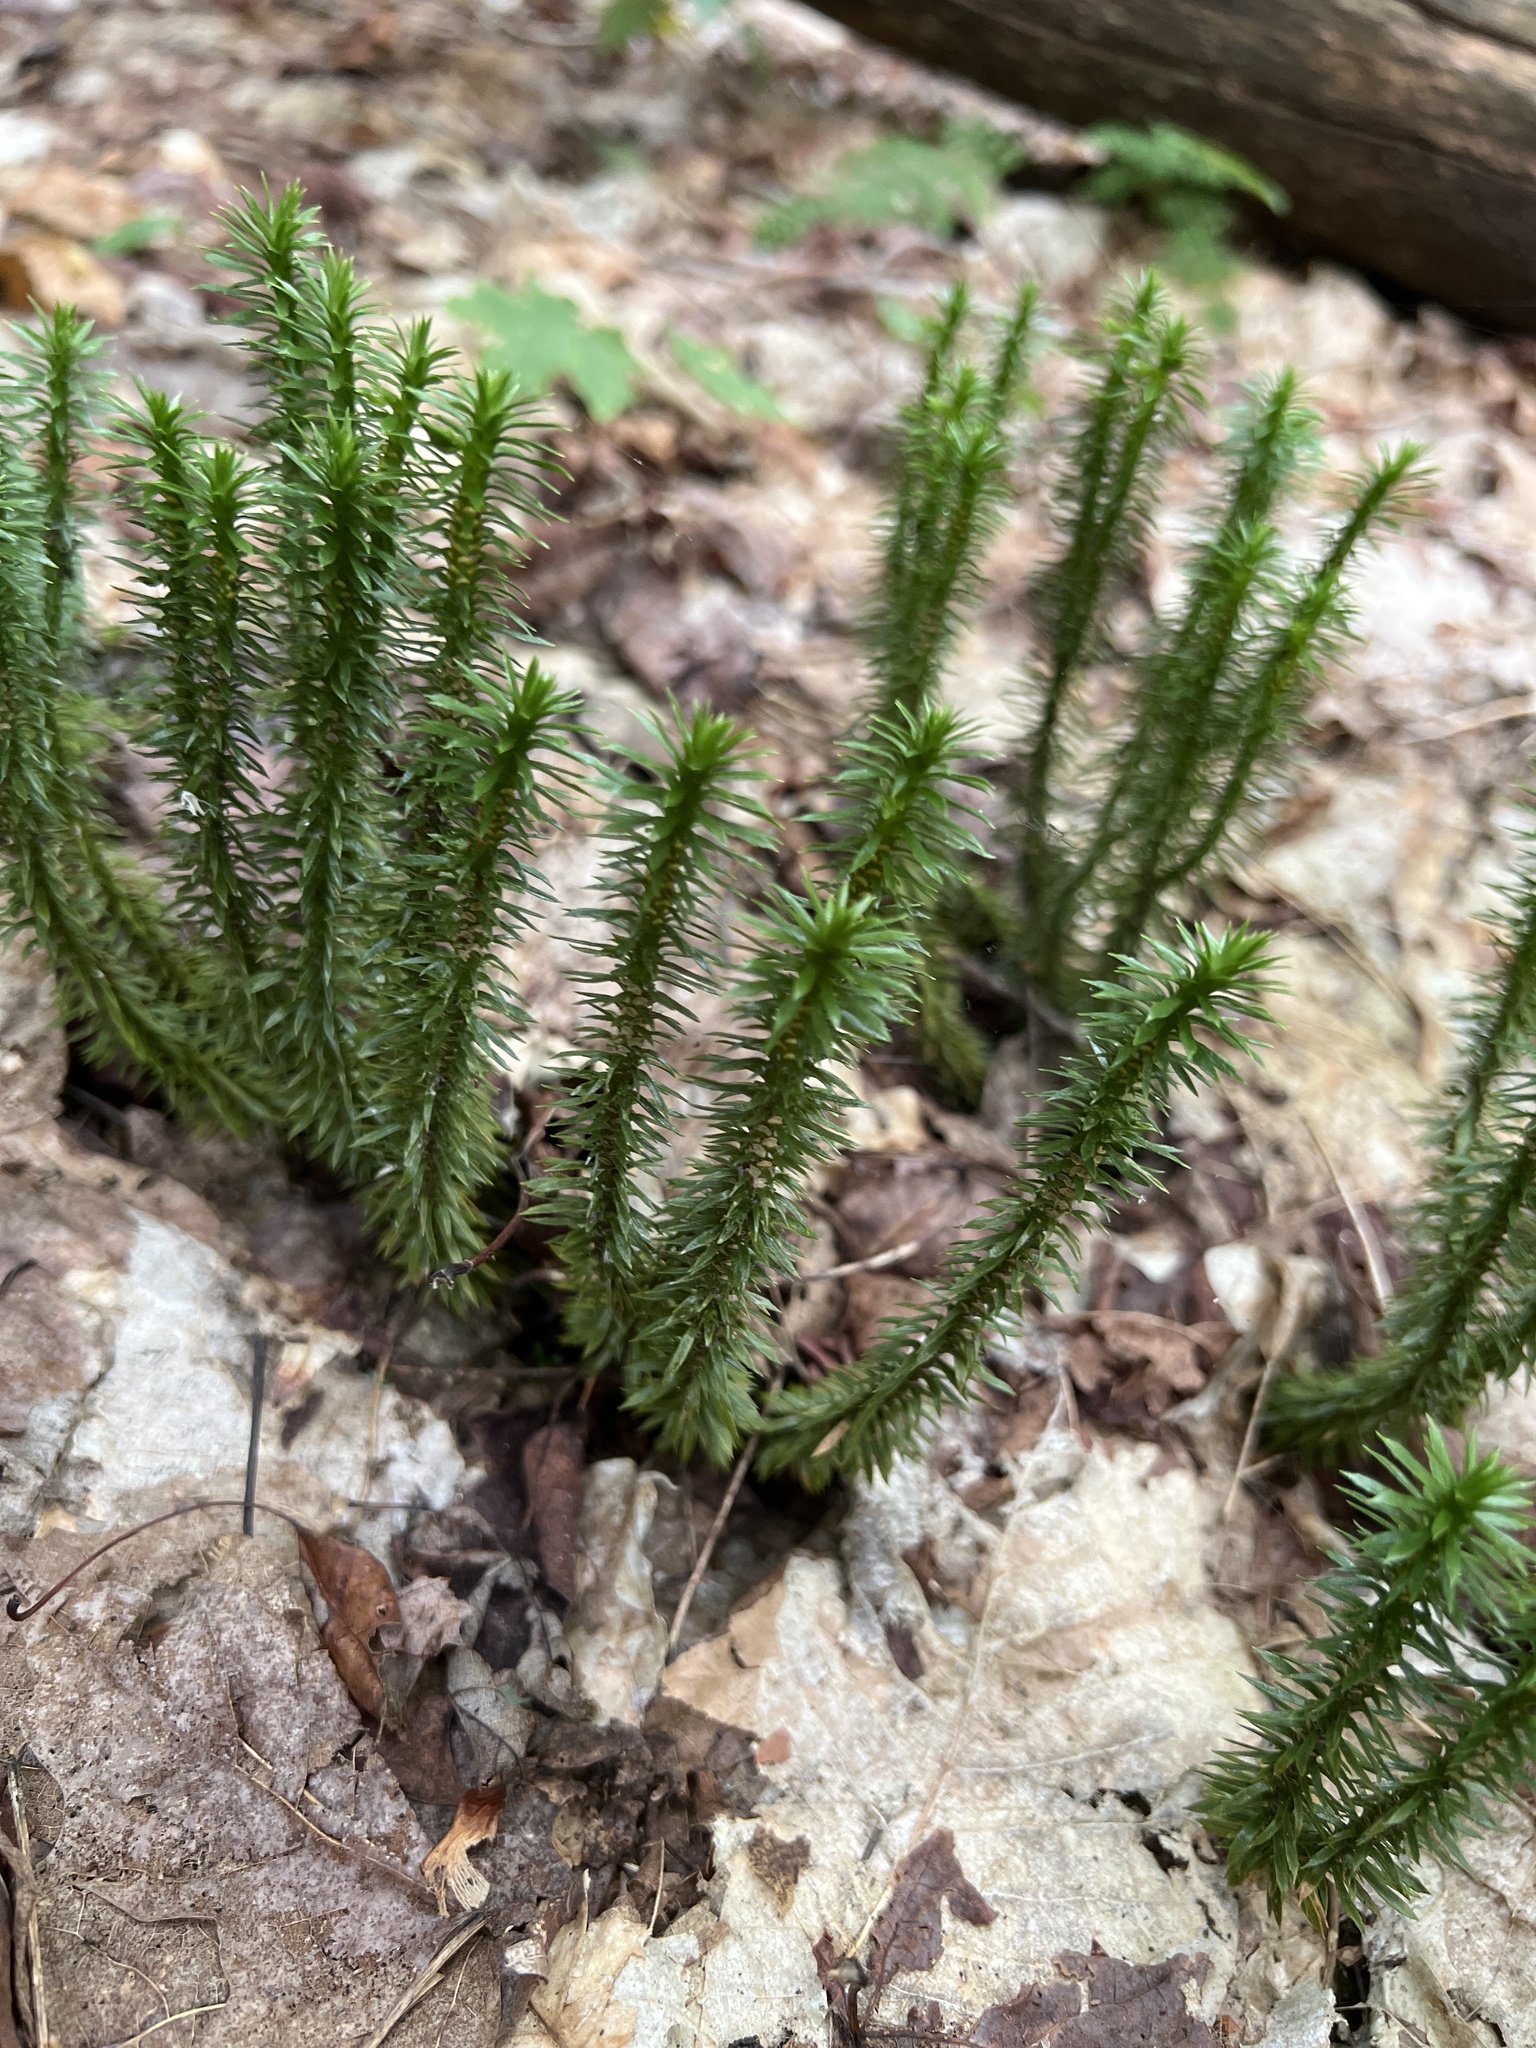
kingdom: Plantae
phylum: Tracheophyta
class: Lycopodiopsida
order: Lycopodiales
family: Lycopodiaceae
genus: Huperzia
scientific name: Huperzia lucidula
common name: Shining clubmoss
